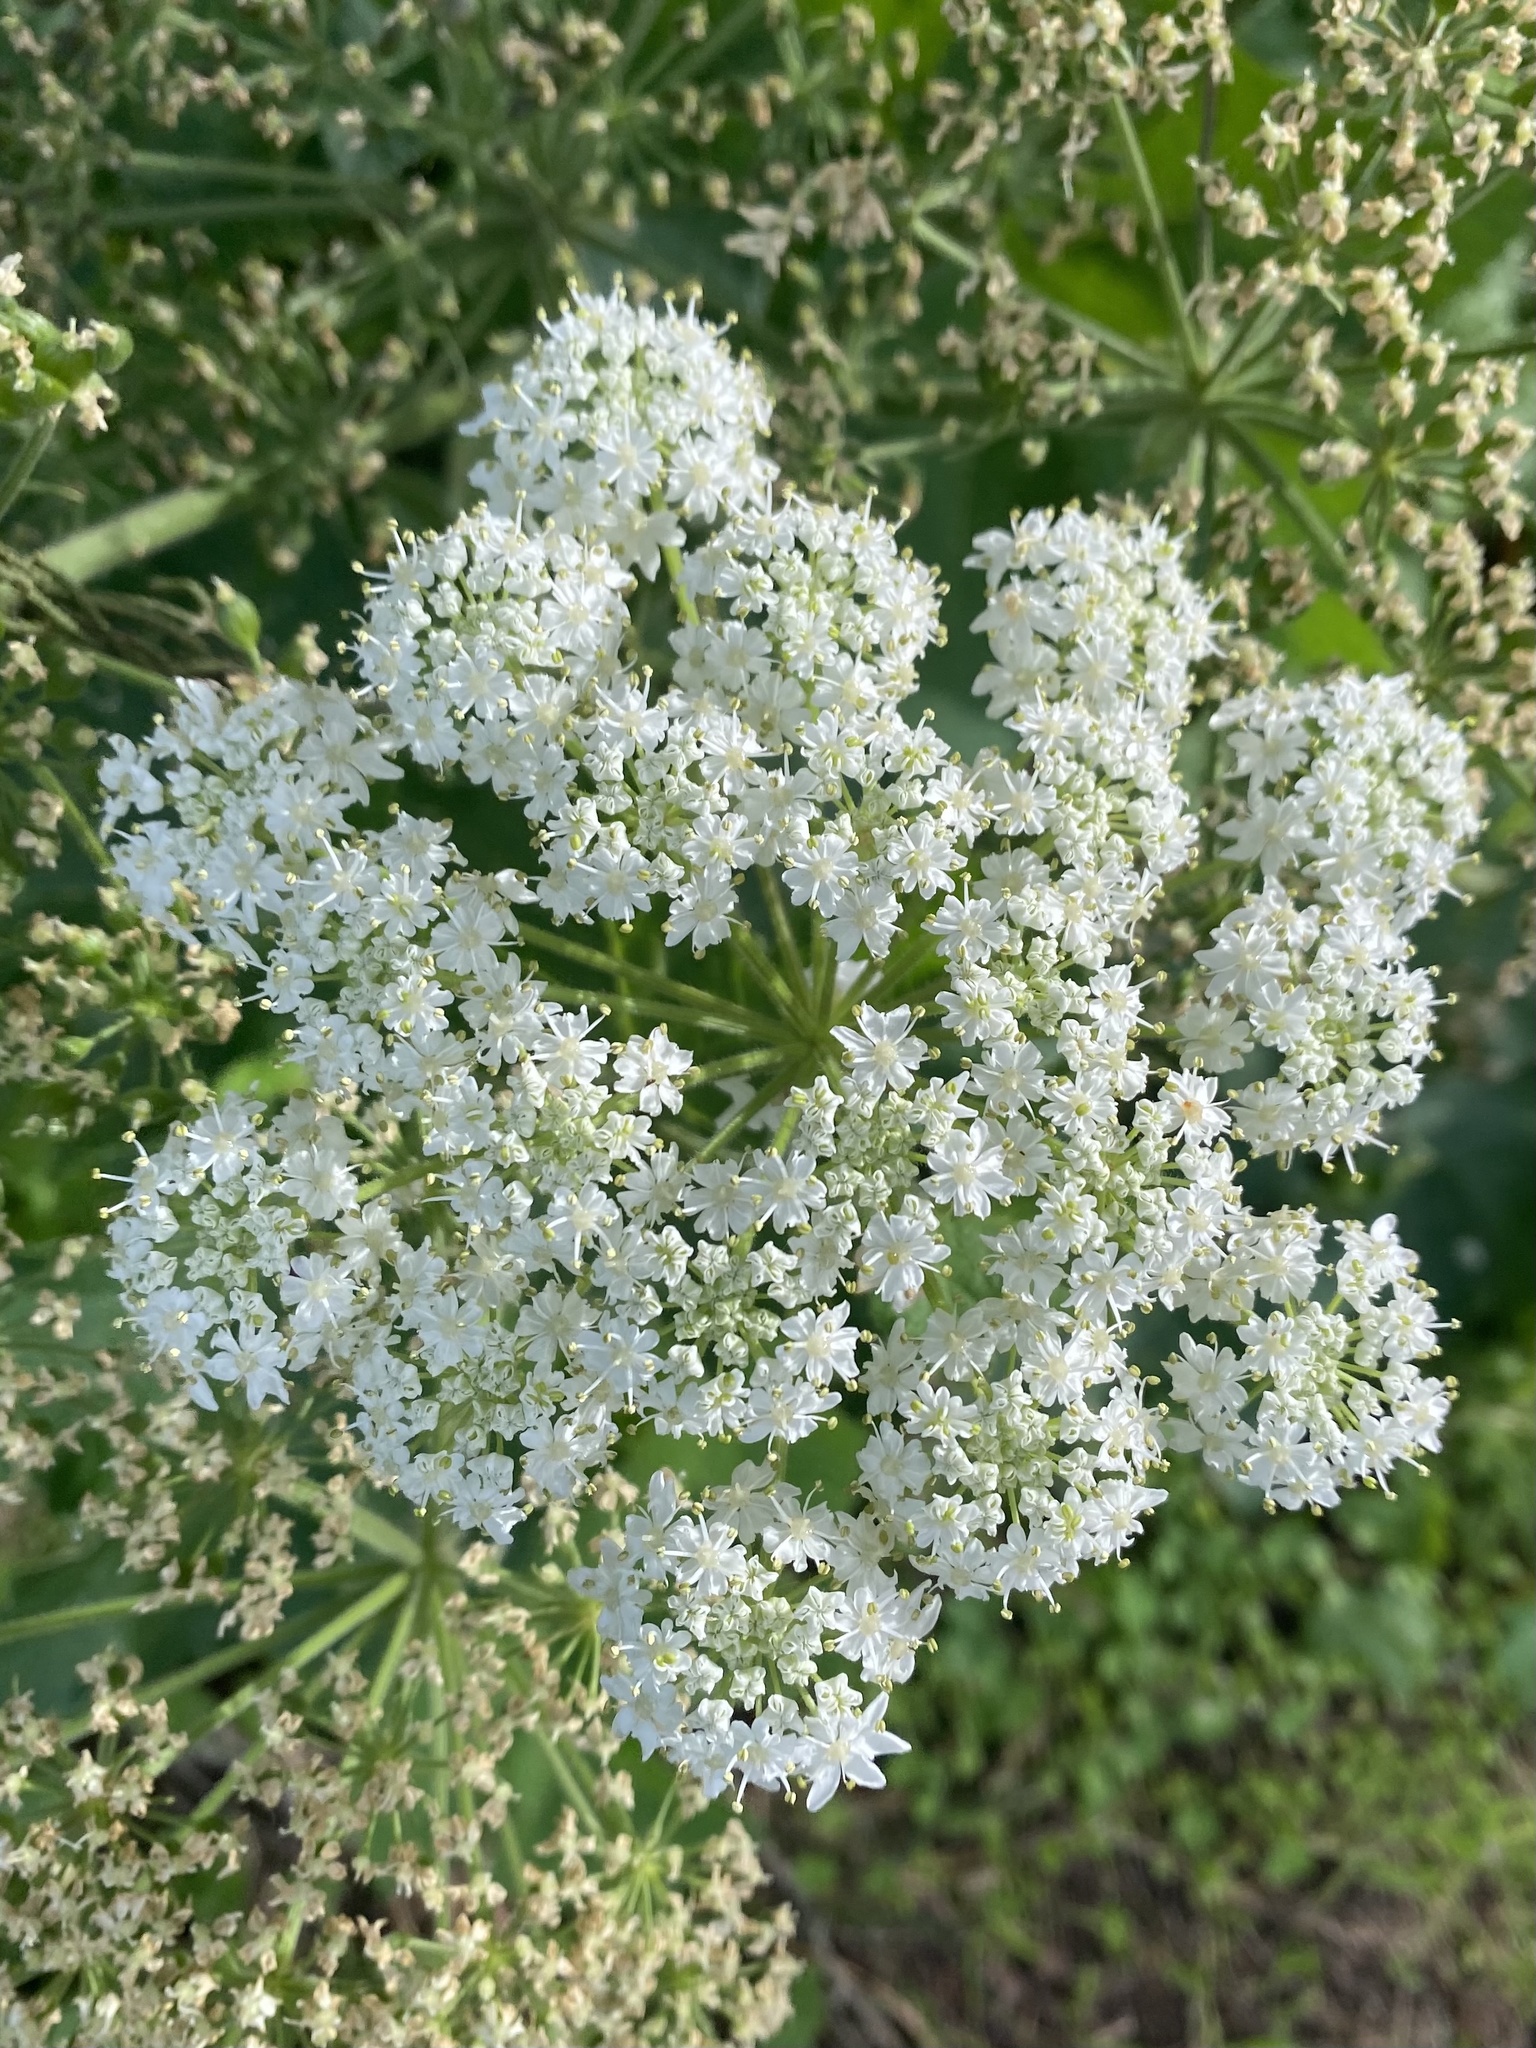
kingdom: Plantae
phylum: Tracheophyta
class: Magnoliopsida
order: Apiales
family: Apiaceae
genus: Heracleum
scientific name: Heracleum maximum
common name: American cow parsnip
